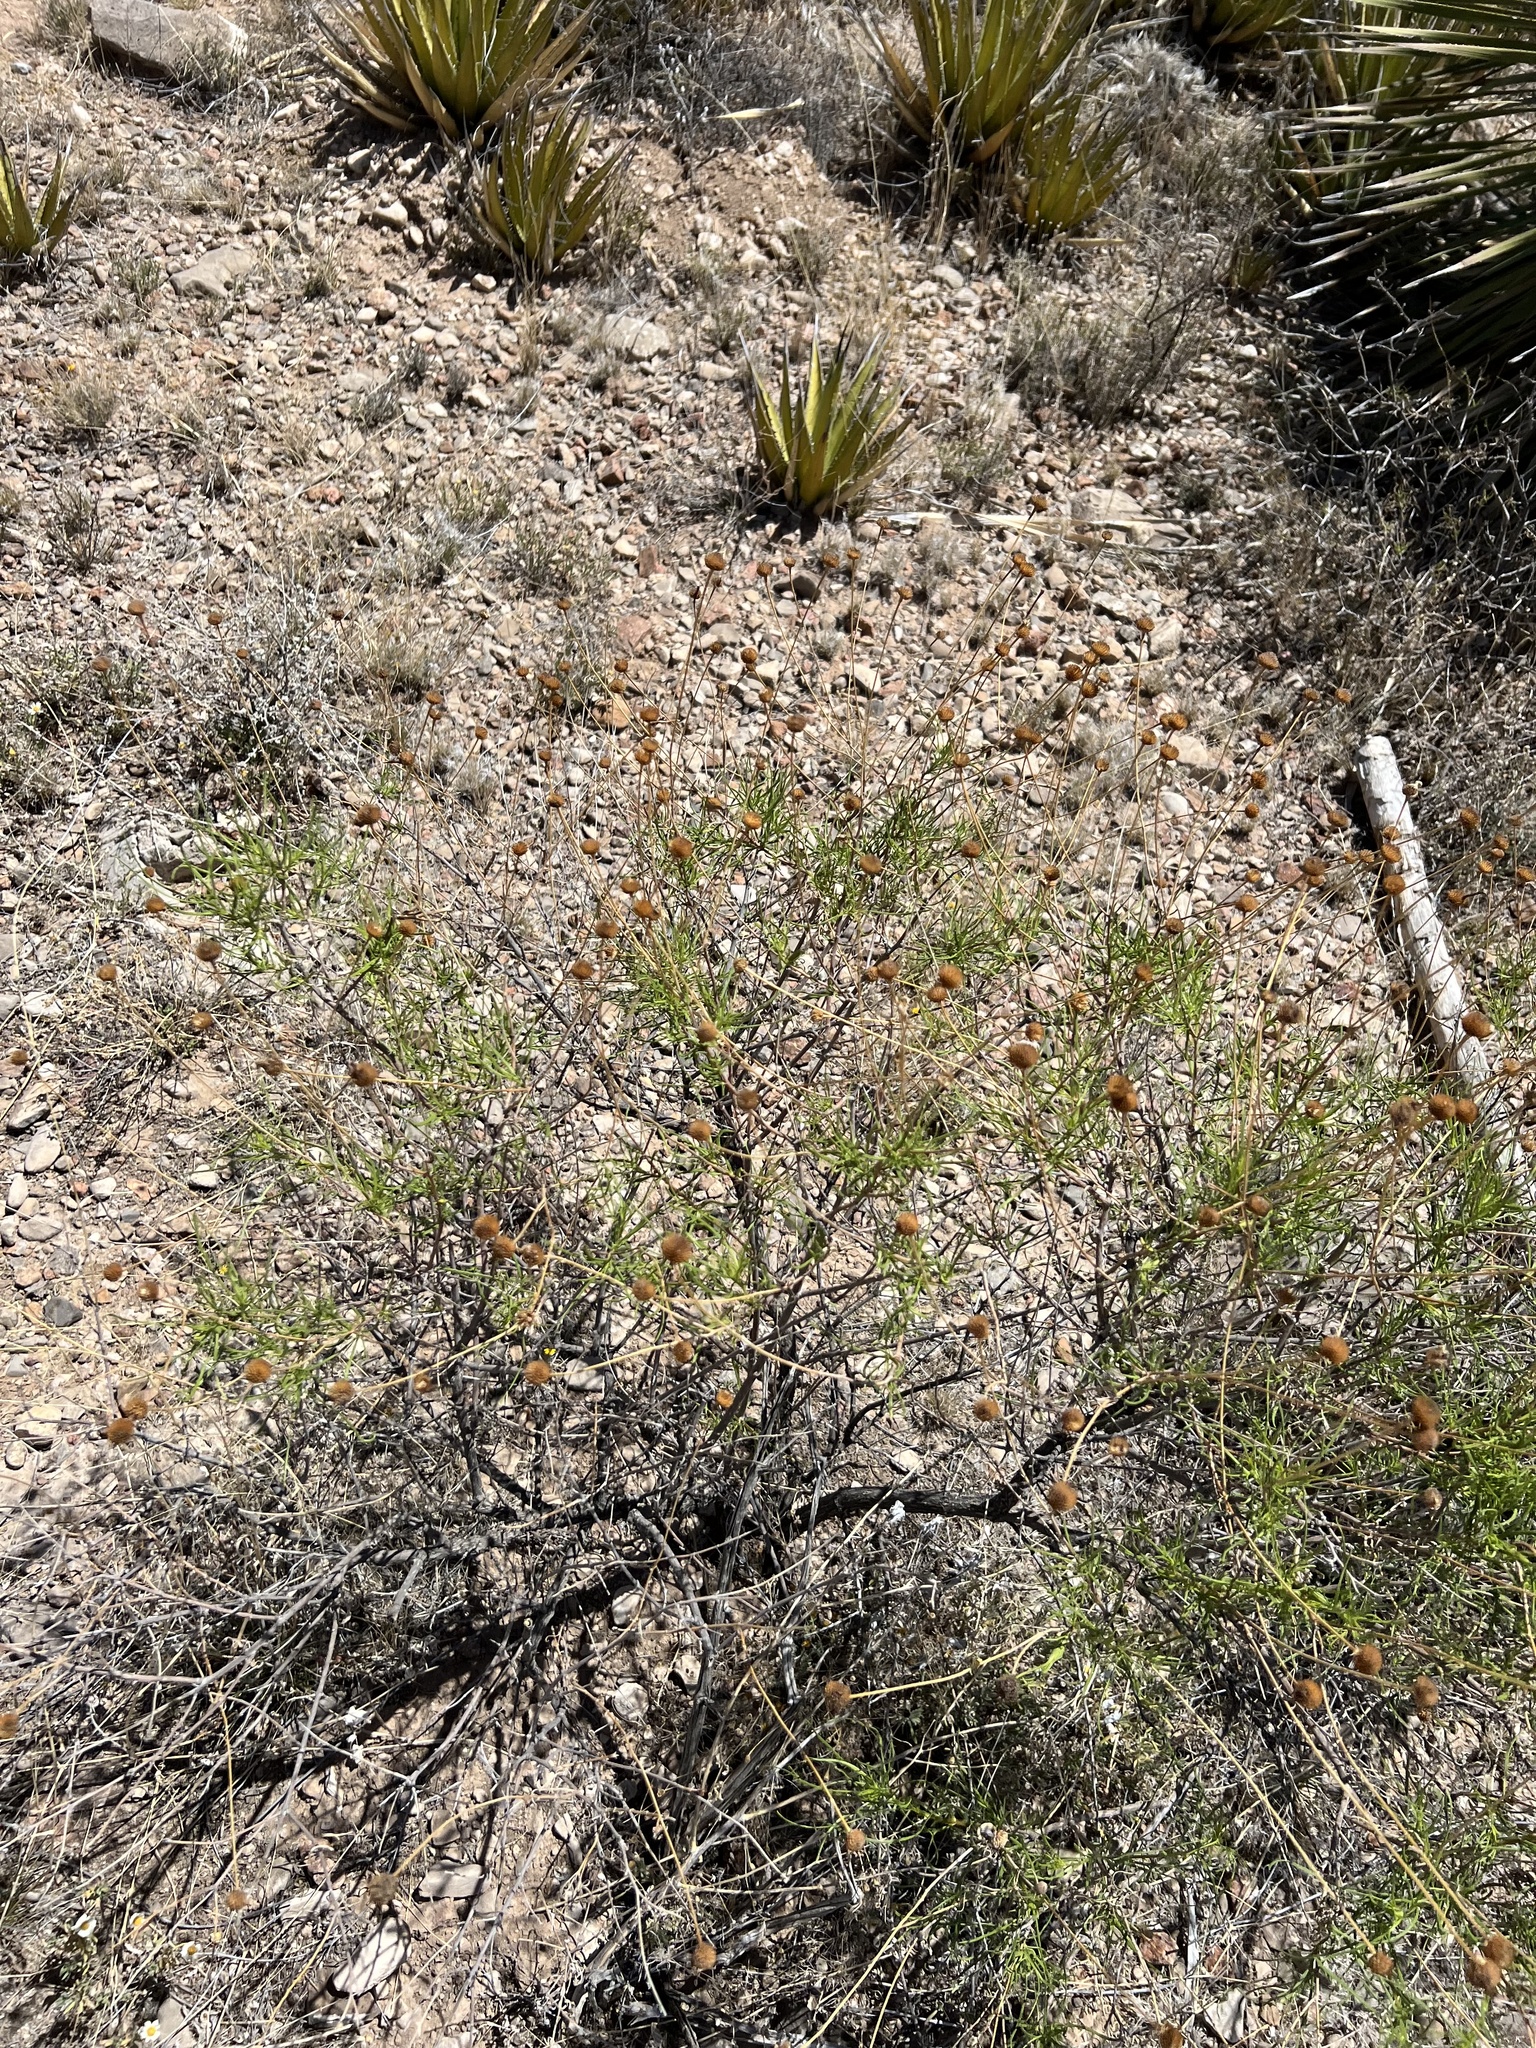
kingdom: Plantae
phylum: Tracheophyta
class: Magnoliopsida
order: Asterales
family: Asteraceae
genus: Sidneya
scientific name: Sidneya tenuifolia
